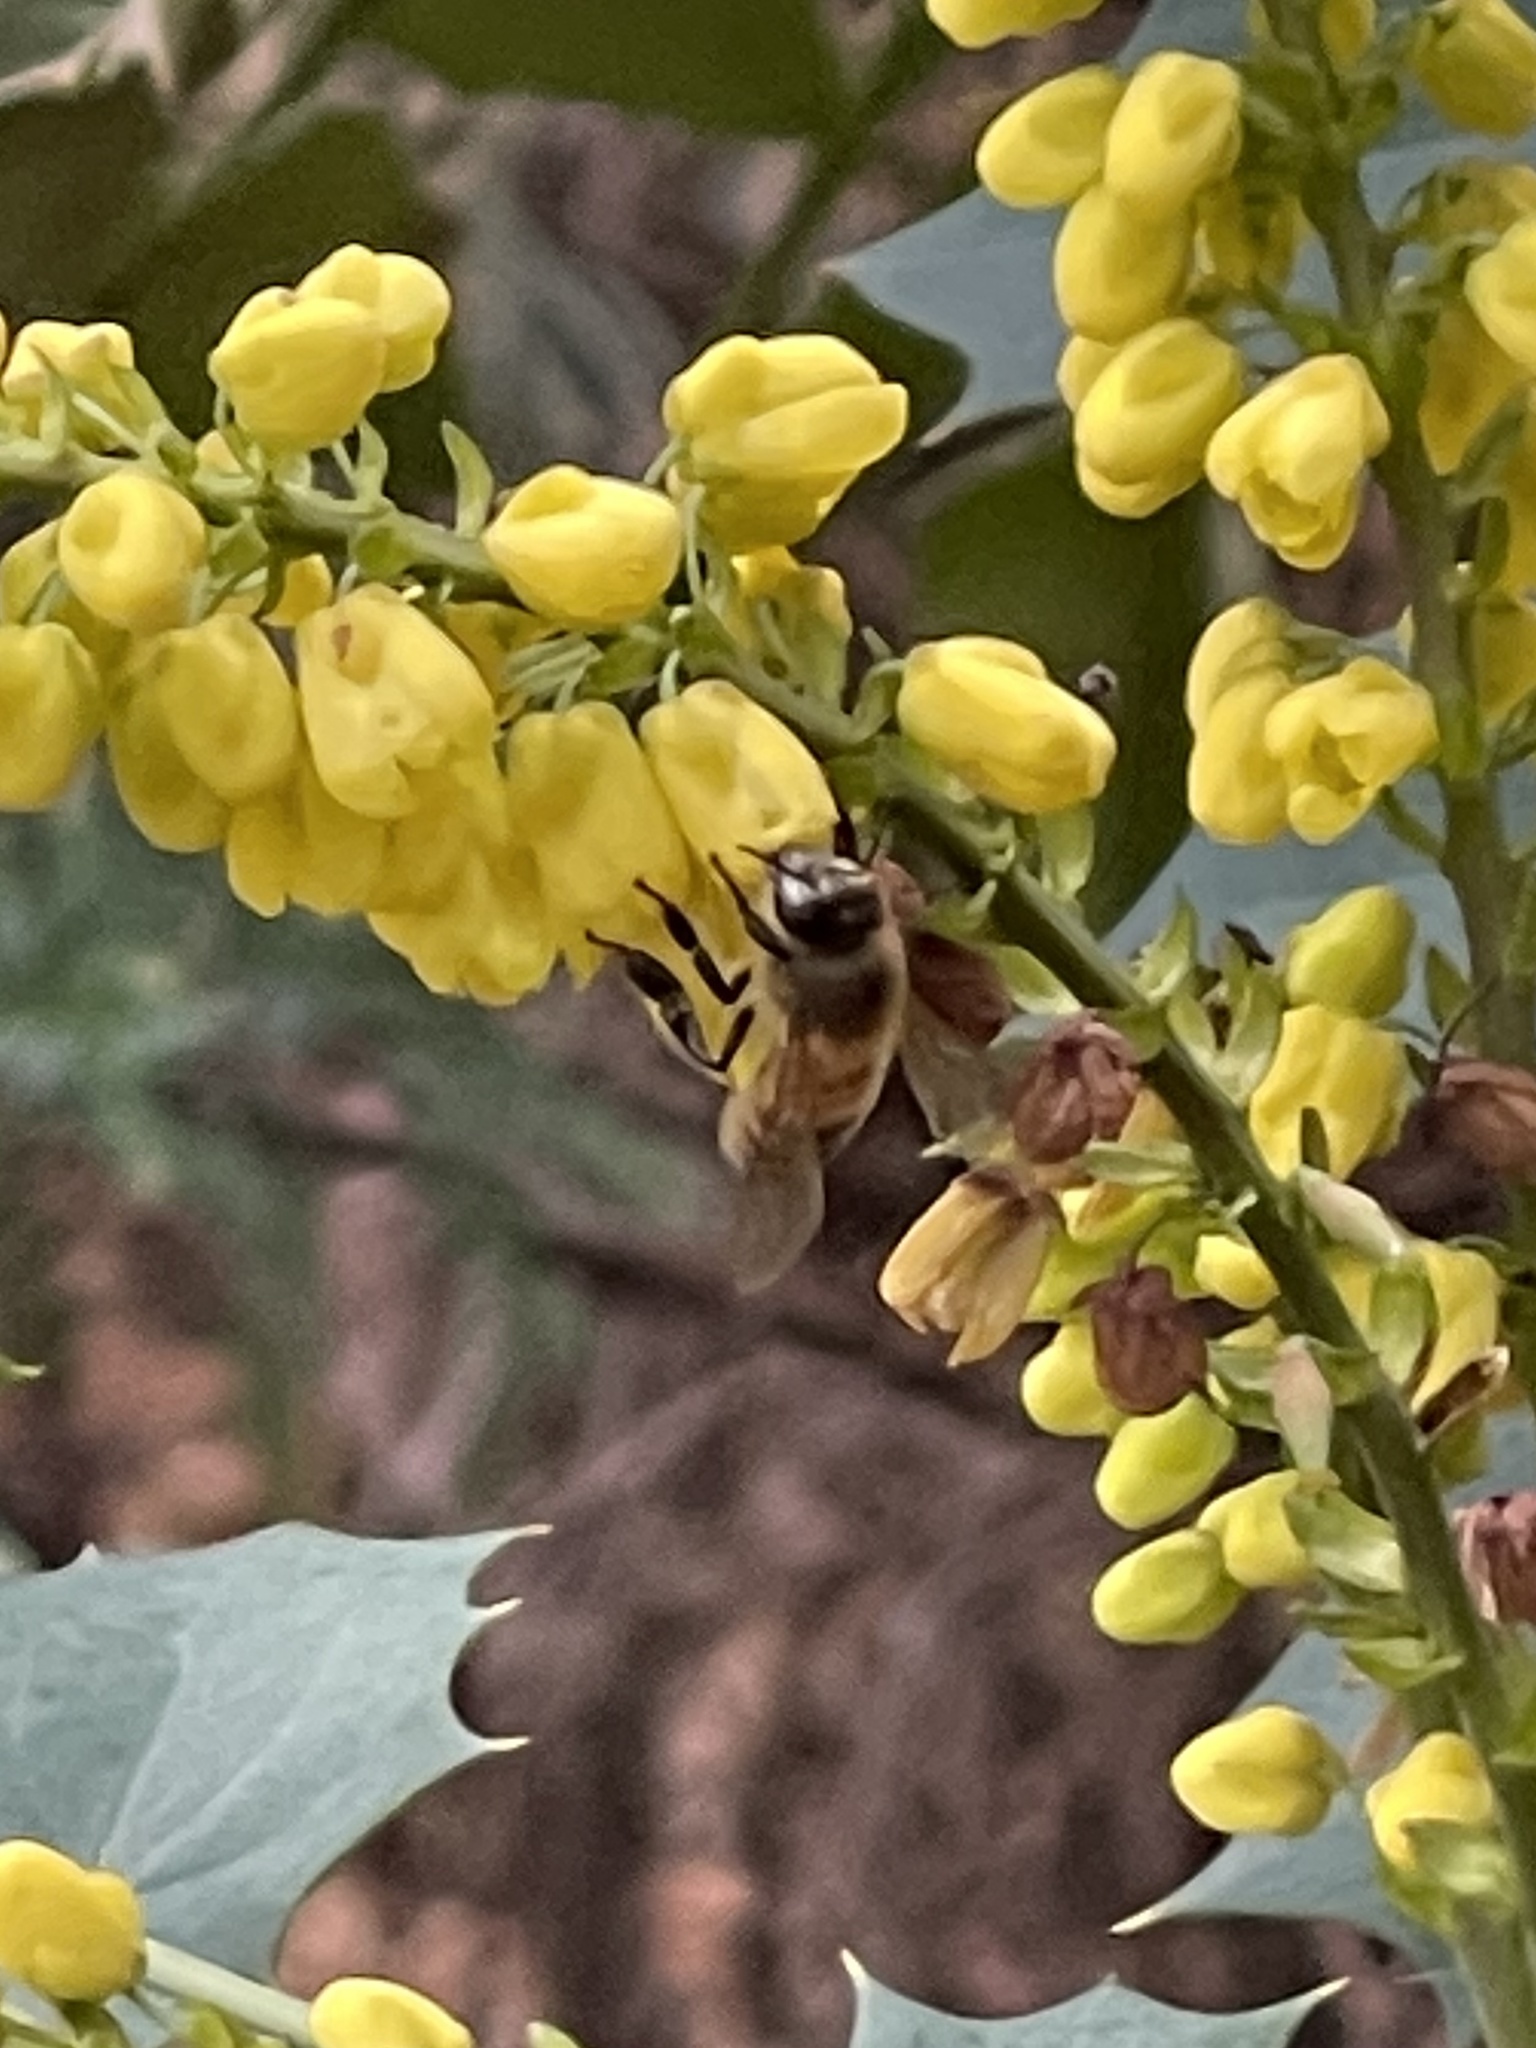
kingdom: Animalia
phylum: Arthropoda
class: Insecta
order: Hymenoptera
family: Apidae
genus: Apis
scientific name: Apis mellifera
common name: Honey bee
